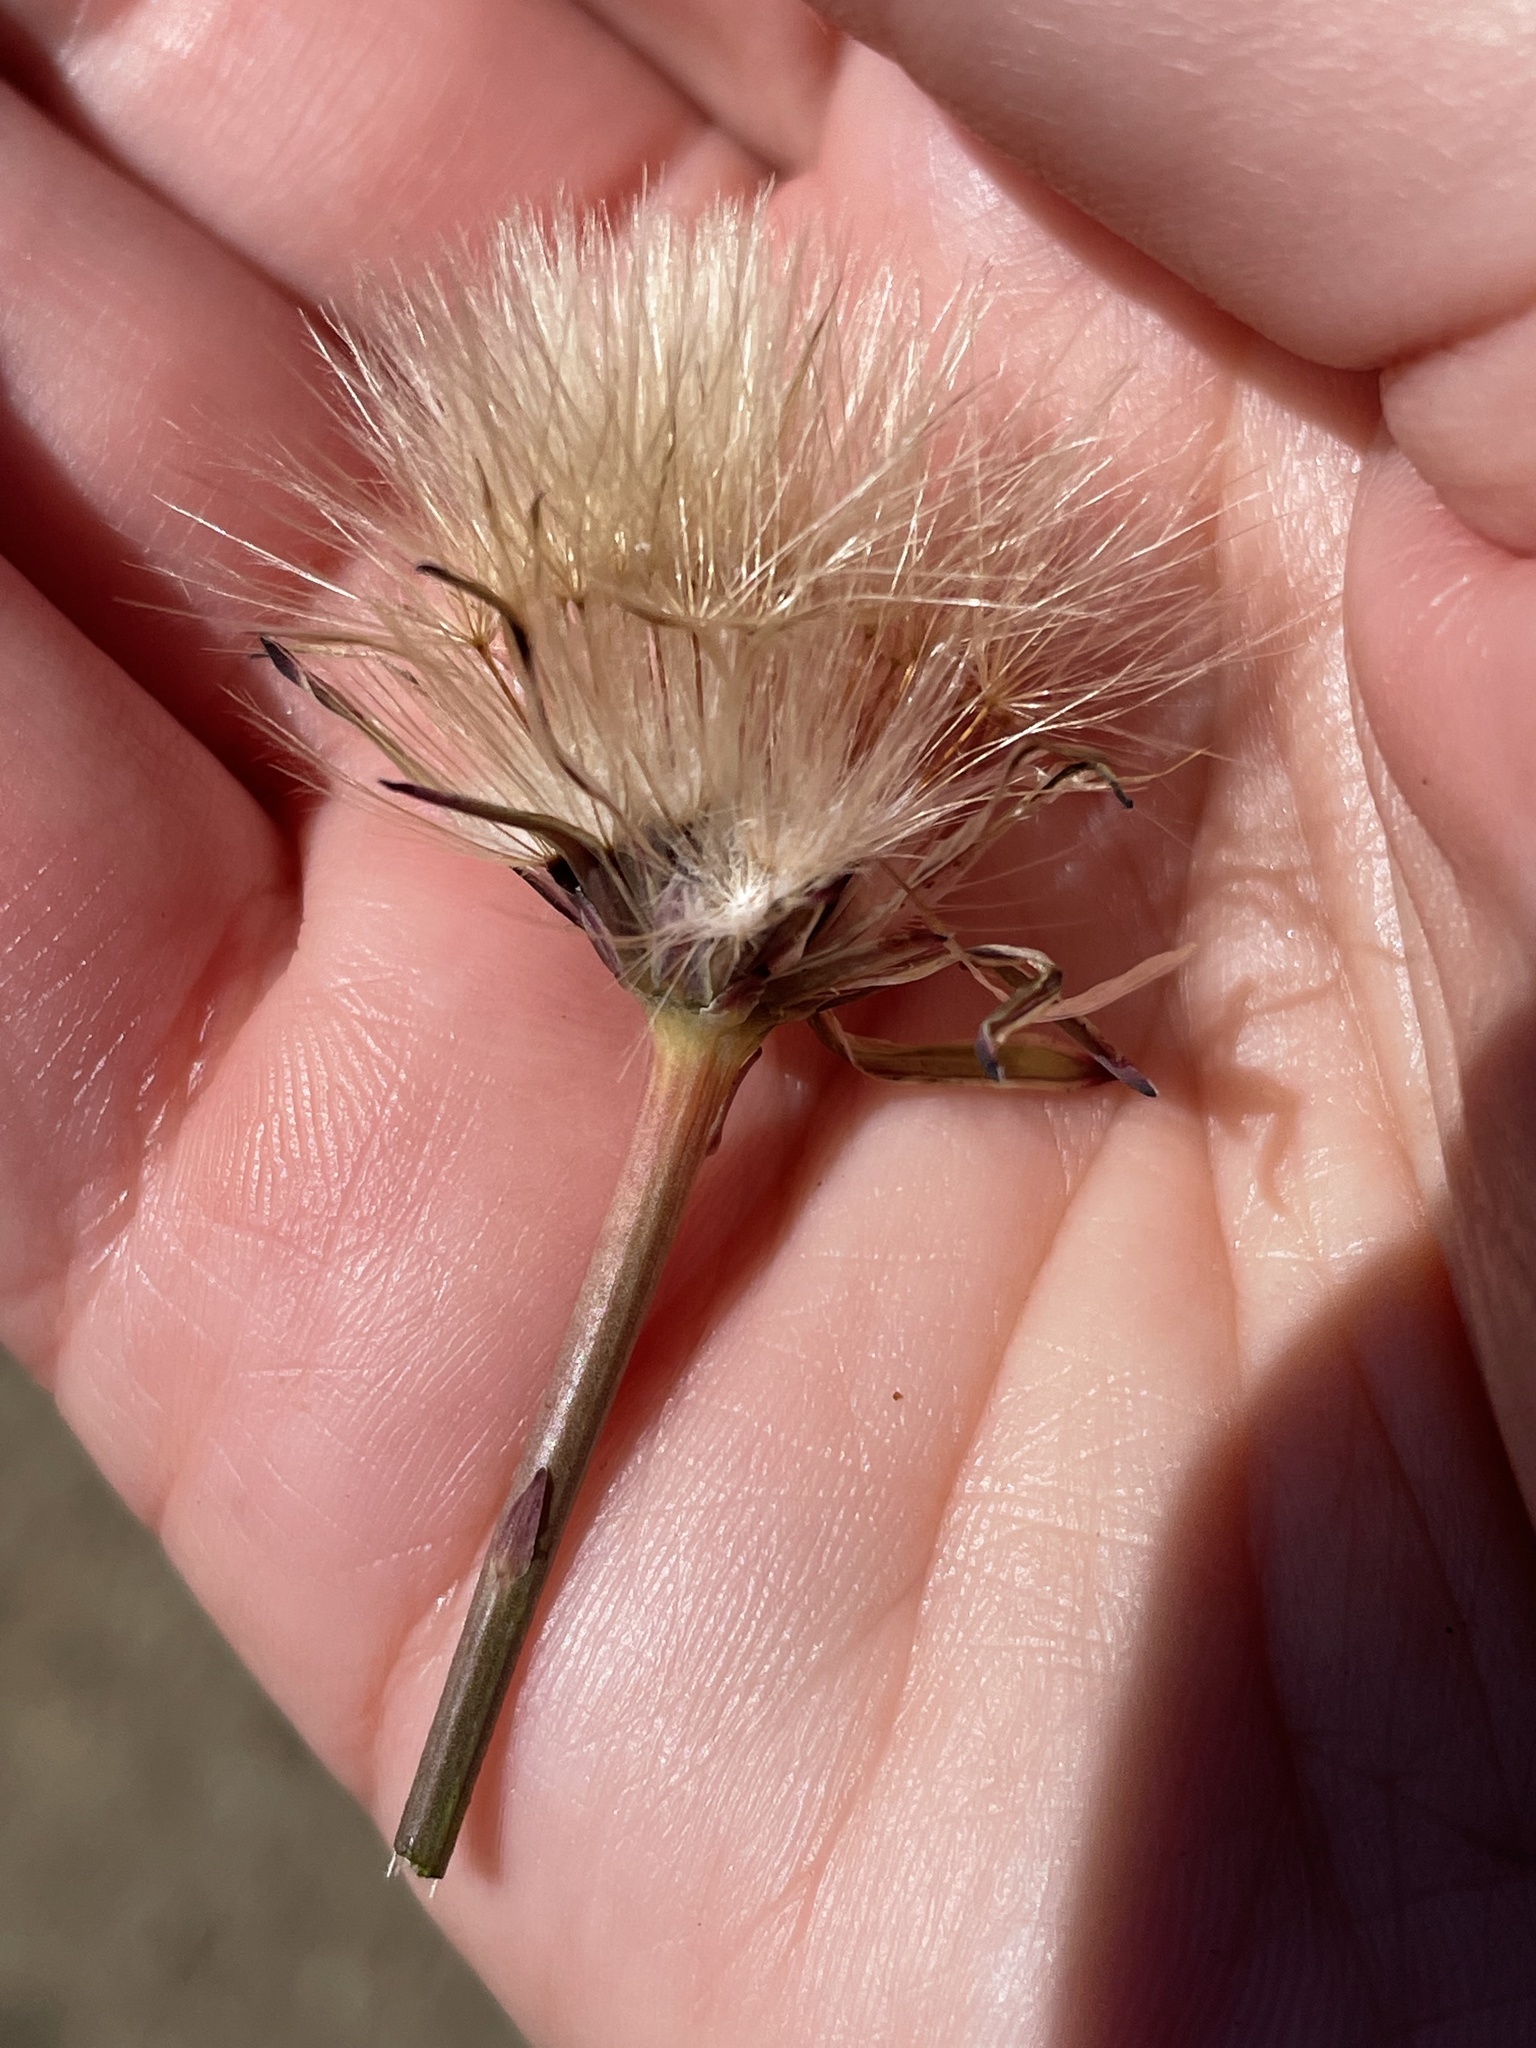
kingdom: Plantae
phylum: Tracheophyta
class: Magnoliopsida
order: Asterales
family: Asteraceae
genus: Hypochaeris
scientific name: Hypochaeris glabra
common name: Smooth catsear
